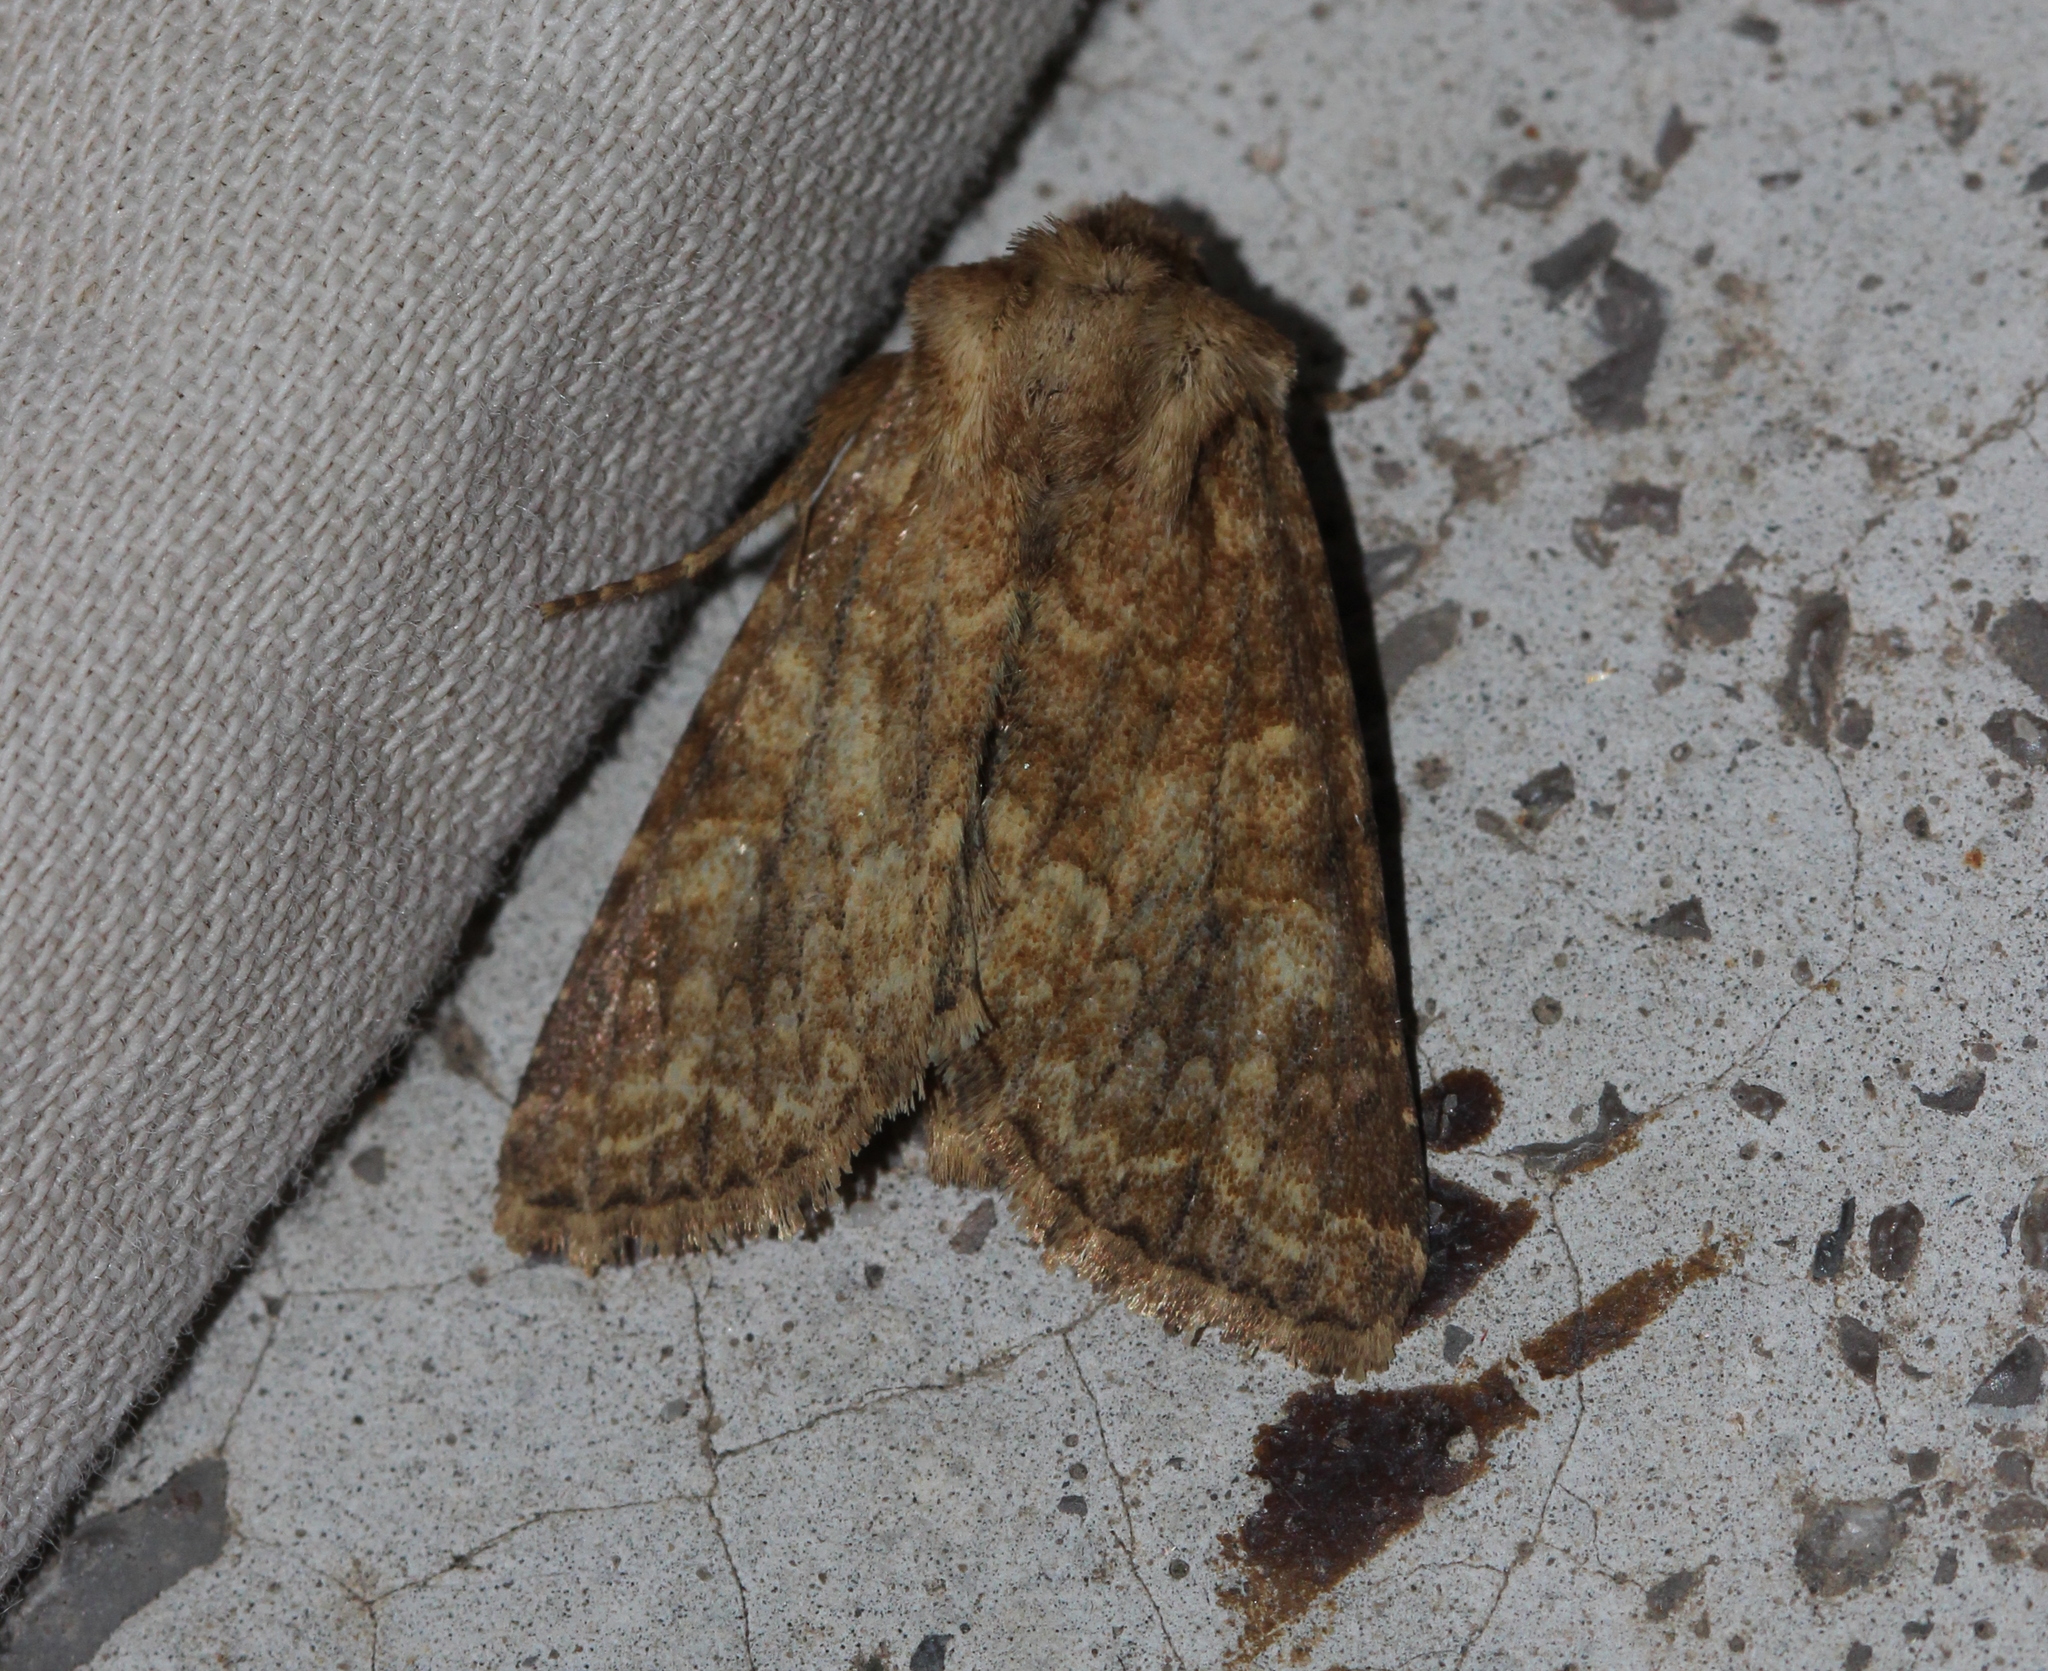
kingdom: Animalia
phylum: Arthropoda
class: Insecta
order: Lepidoptera
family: Noctuidae
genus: Conisania
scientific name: Conisania luteago
